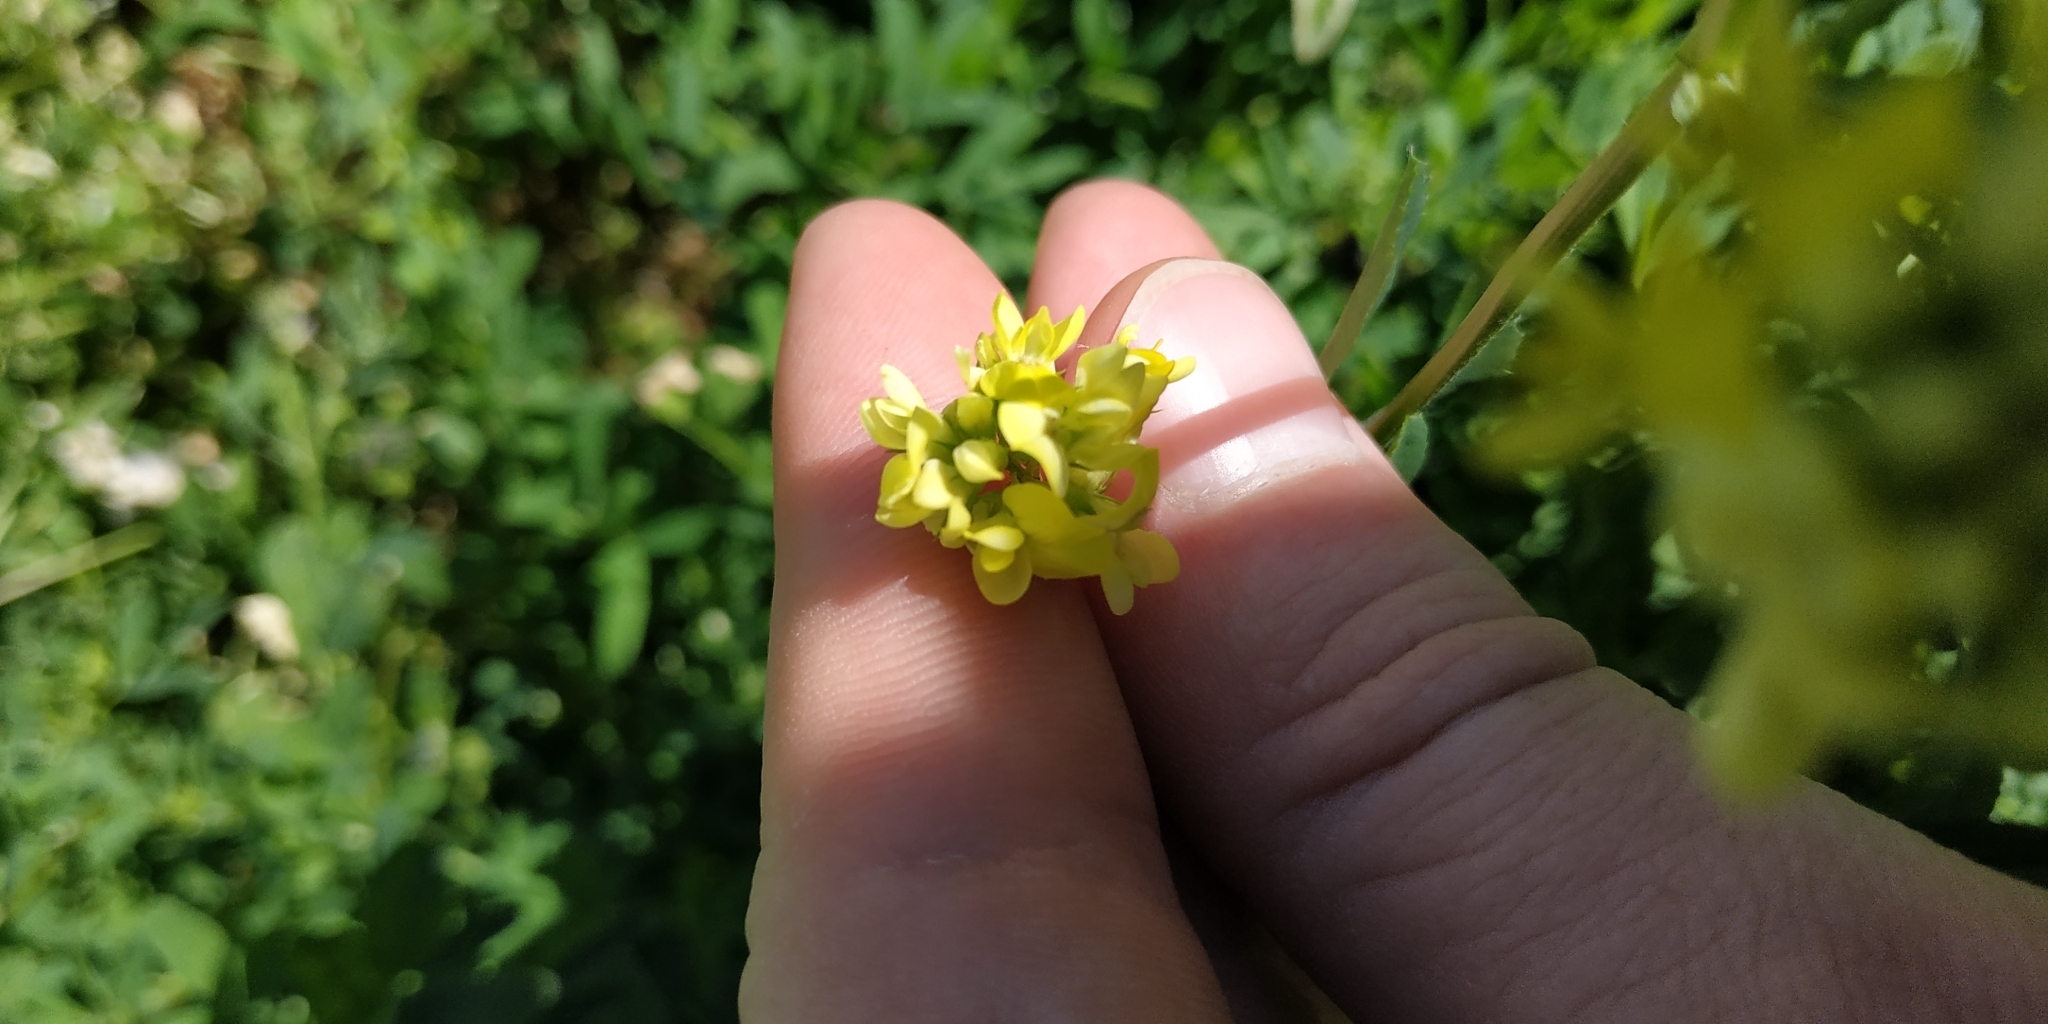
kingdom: Plantae
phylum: Tracheophyta
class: Magnoliopsida
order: Fabales
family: Fabaceae
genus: Medicago
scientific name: Medicago varia
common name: Sand lucerne
